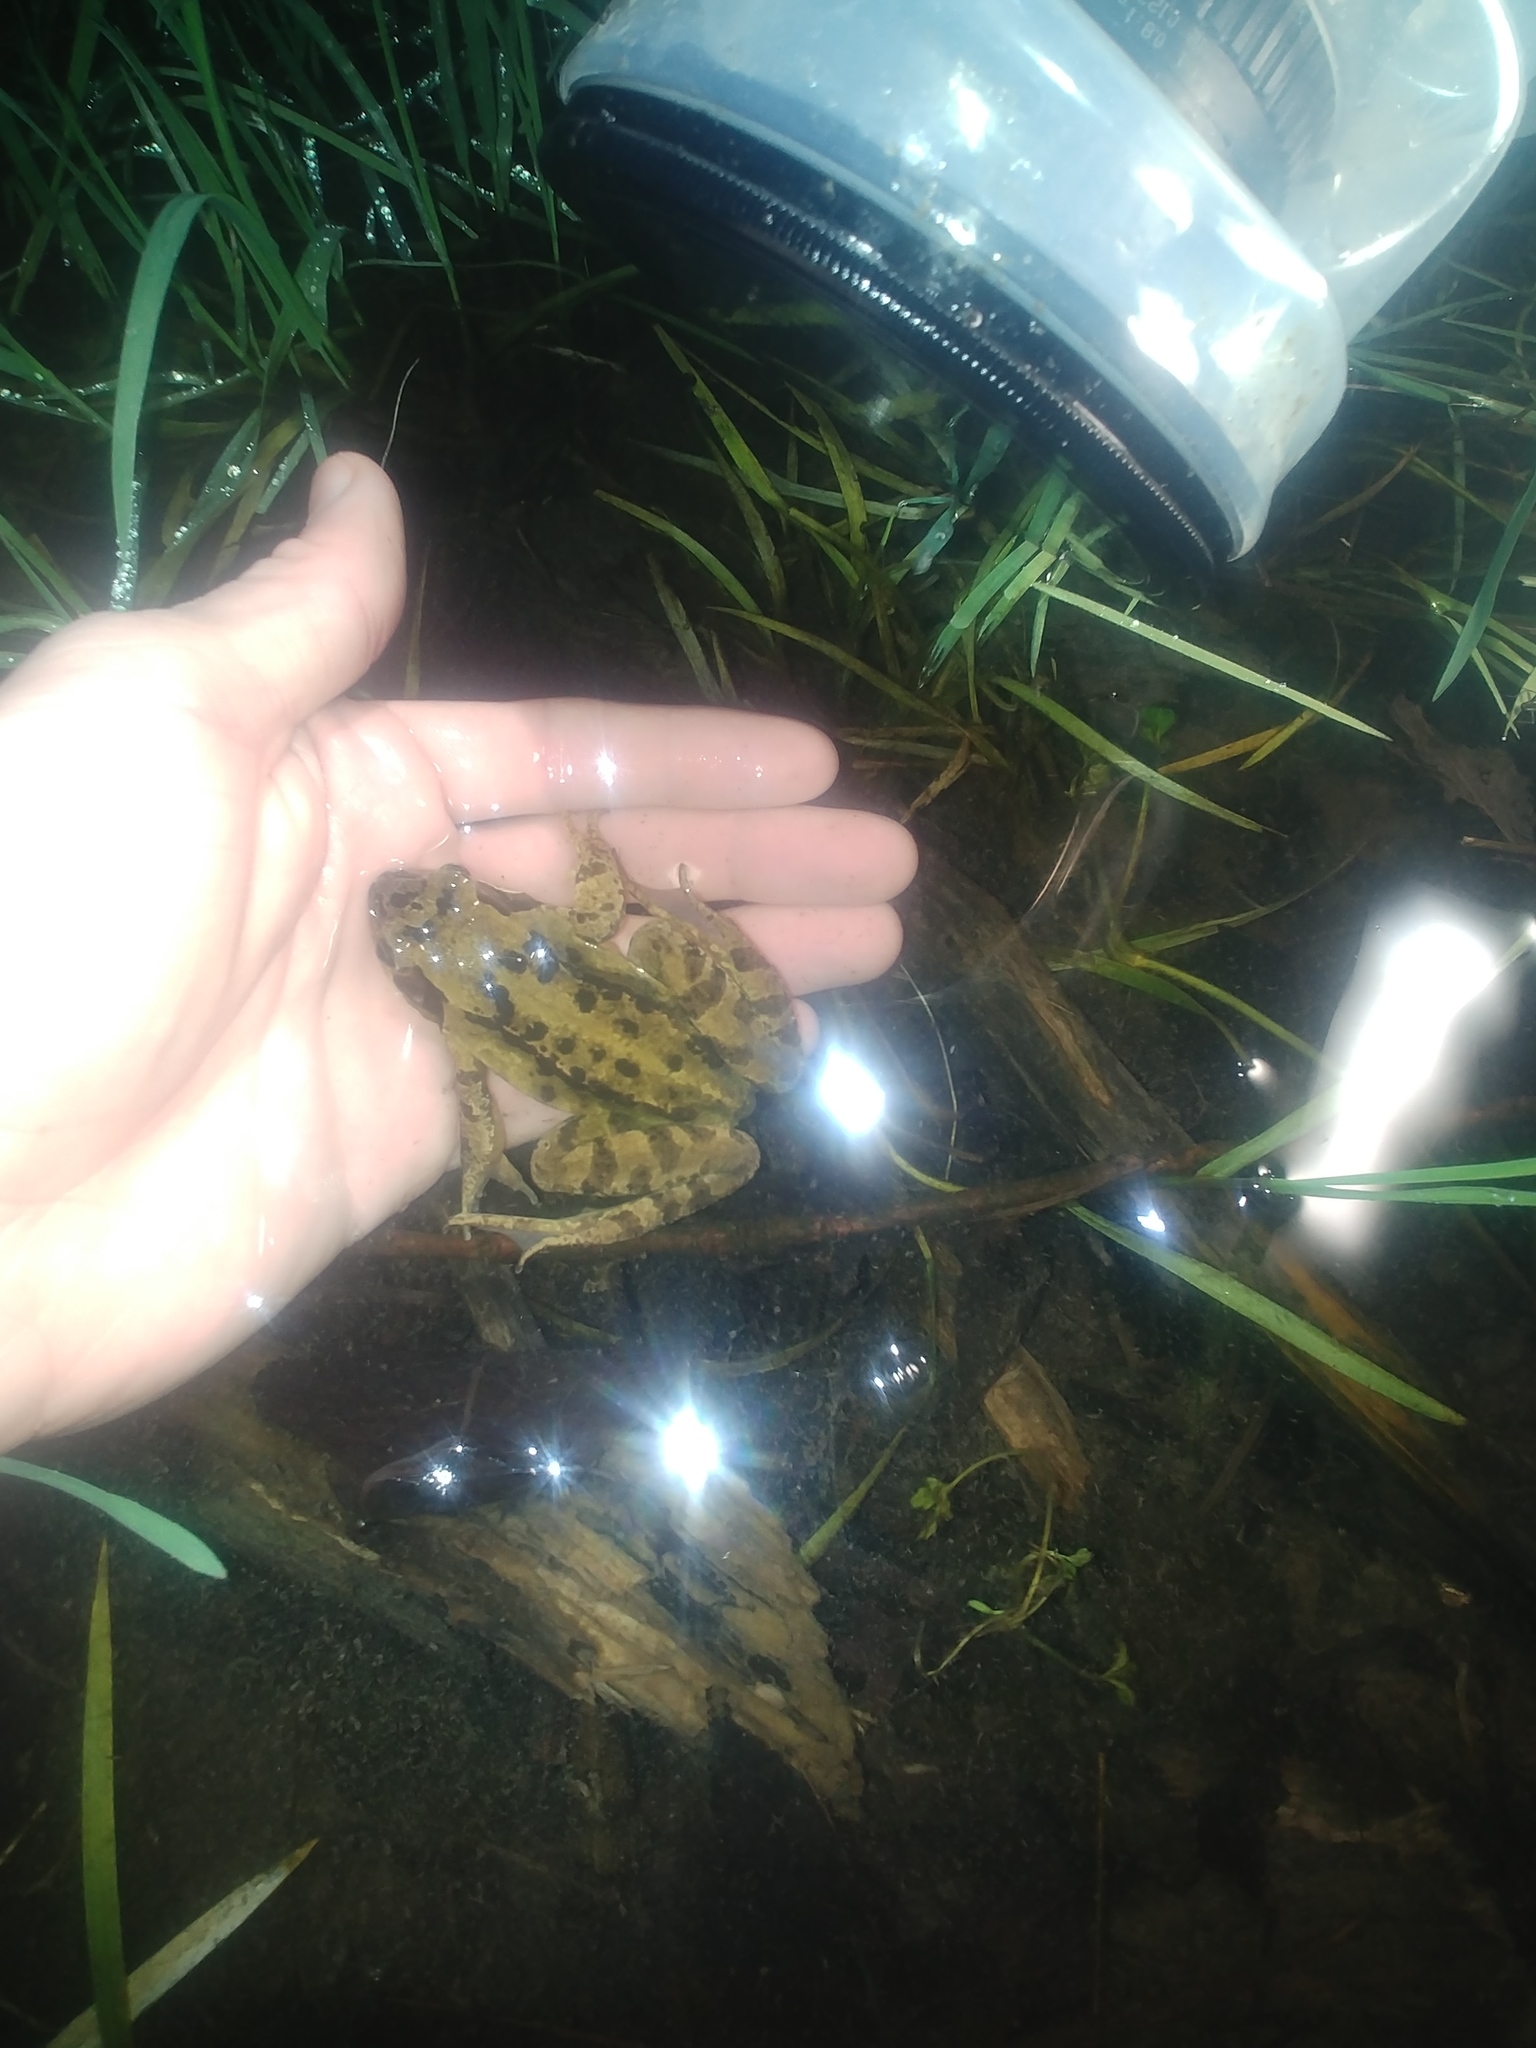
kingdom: Animalia
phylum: Chordata
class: Amphibia
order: Anura
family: Ranidae
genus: Rana
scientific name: Rana temporaria
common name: Common frog
